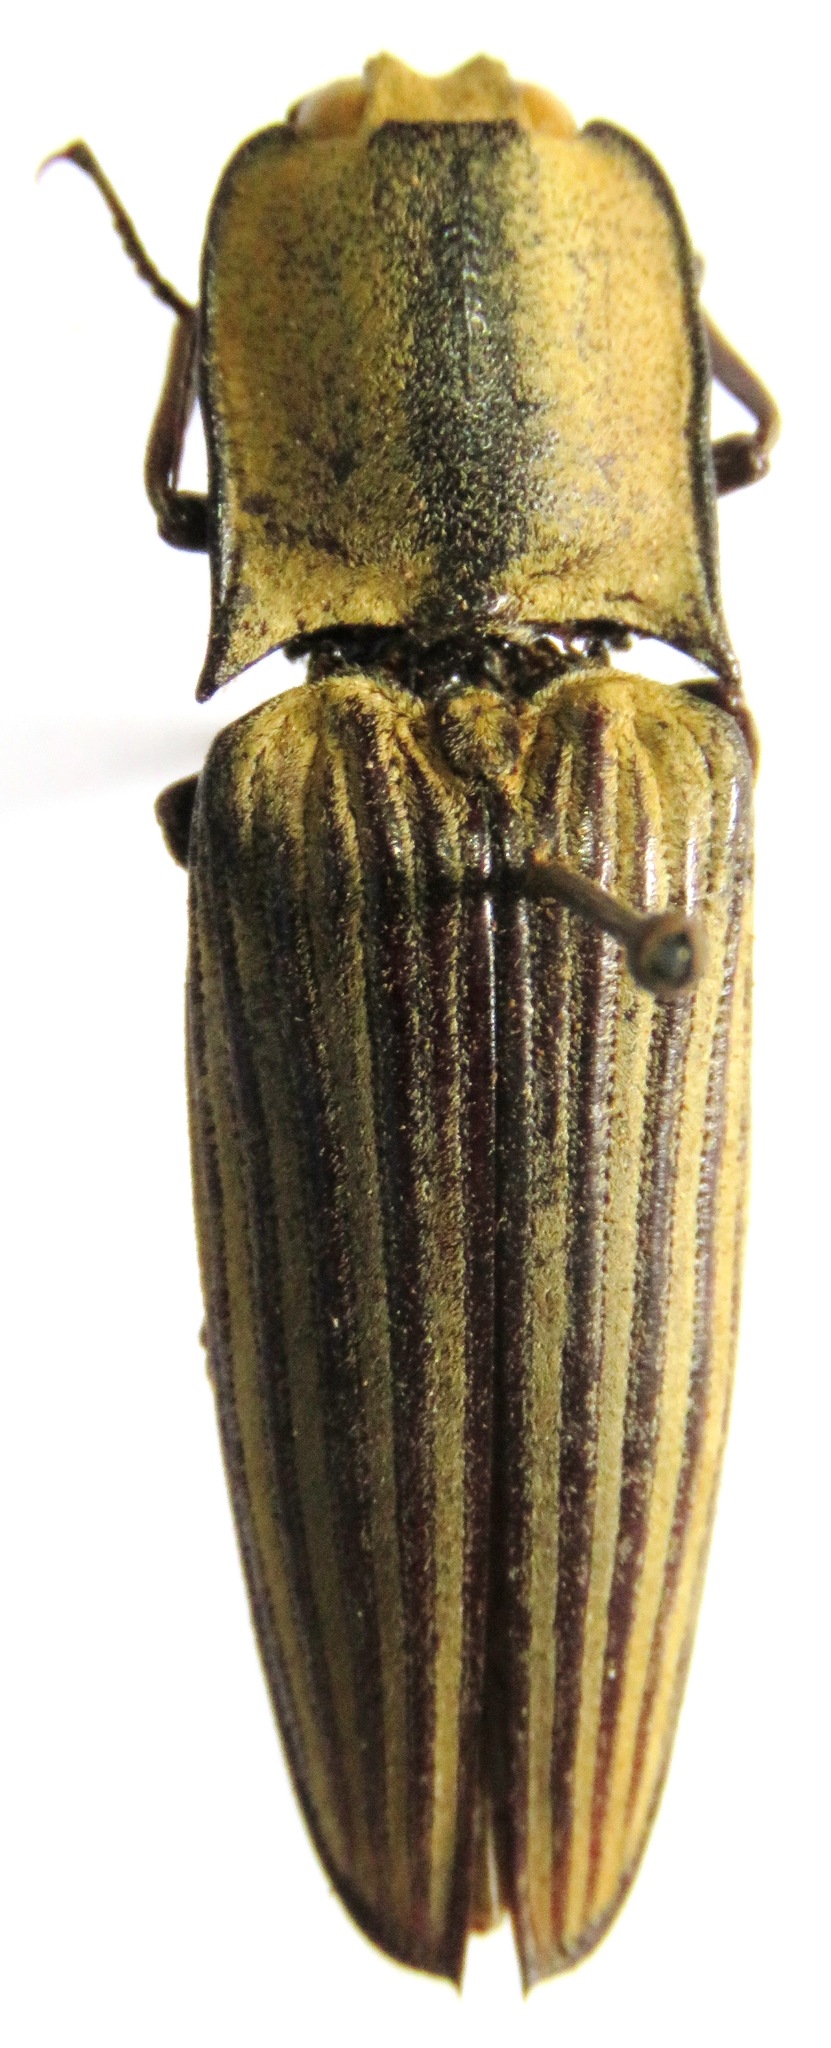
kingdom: Animalia
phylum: Arthropoda
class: Insecta
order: Coleoptera
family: Elateridae
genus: Alaus
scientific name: Alaus
